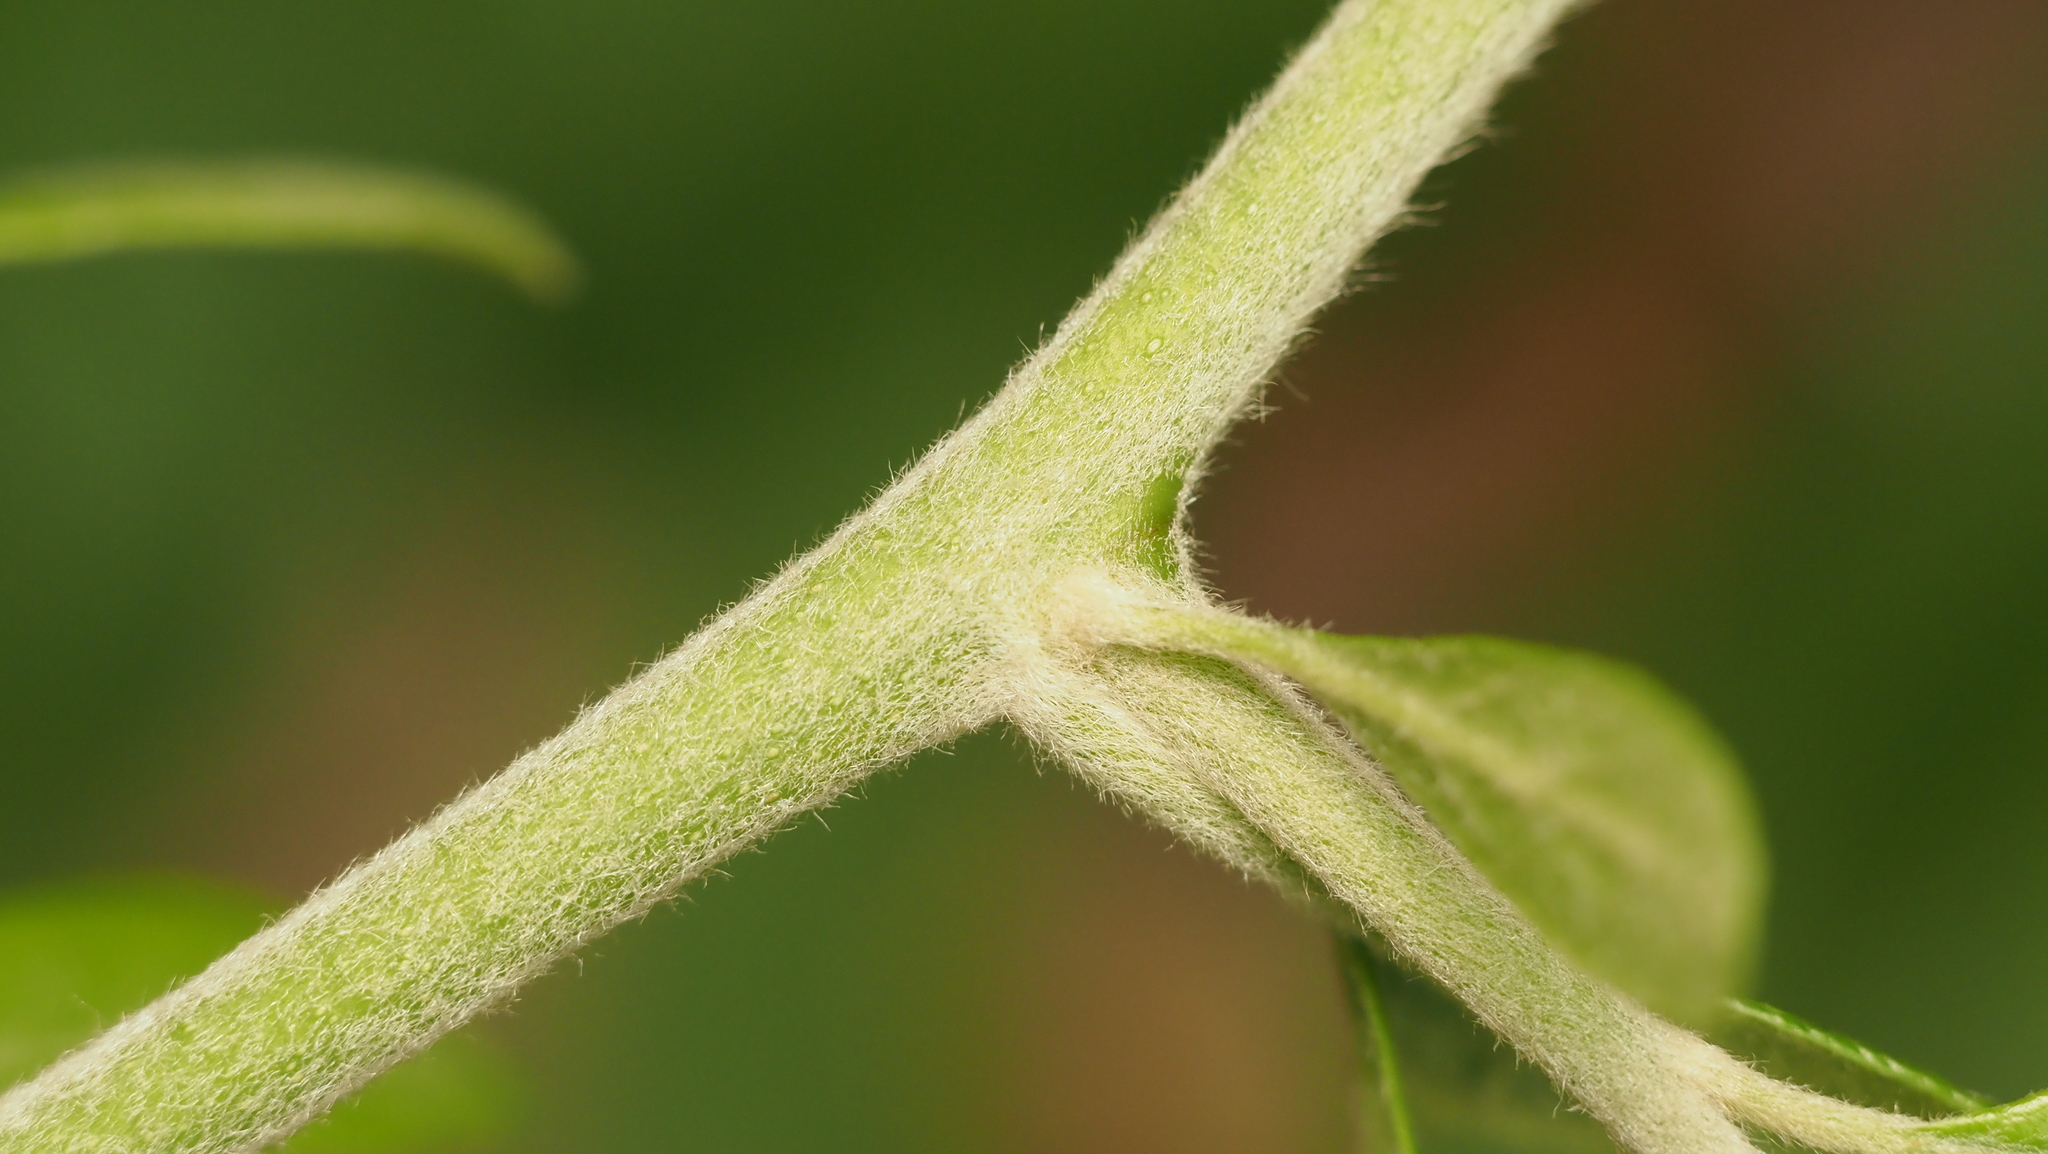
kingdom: Plantae
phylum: Tracheophyta
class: Magnoliopsida
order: Ericales
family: Sapotaceae
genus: Sideroxylon
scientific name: Sideroxylon lanuginosum
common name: Chittamwood
